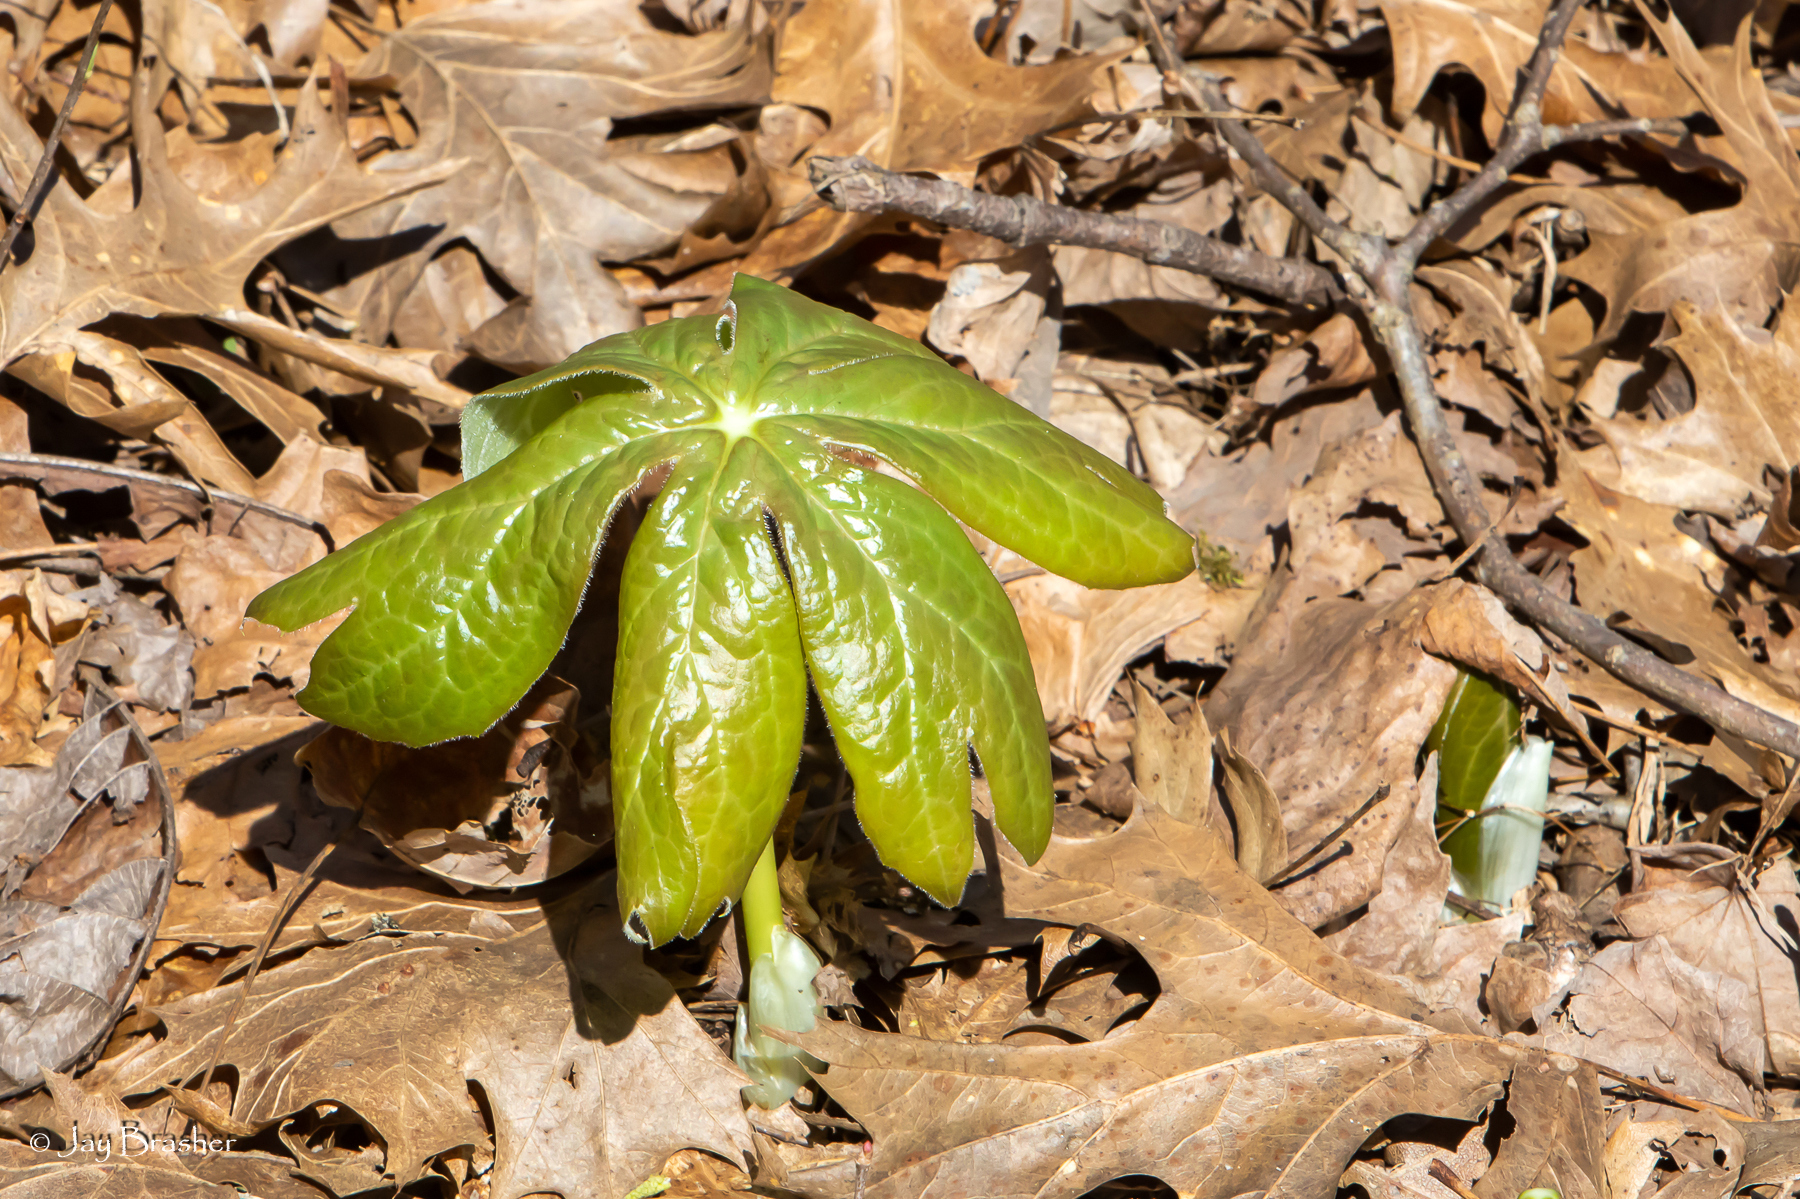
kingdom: Plantae
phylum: Tracheophyta
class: Magnoliopsida
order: Ranunculales
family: Berberidaceae
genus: Podophyllum
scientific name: Podophyllum peltatum
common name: Wild mandrake
